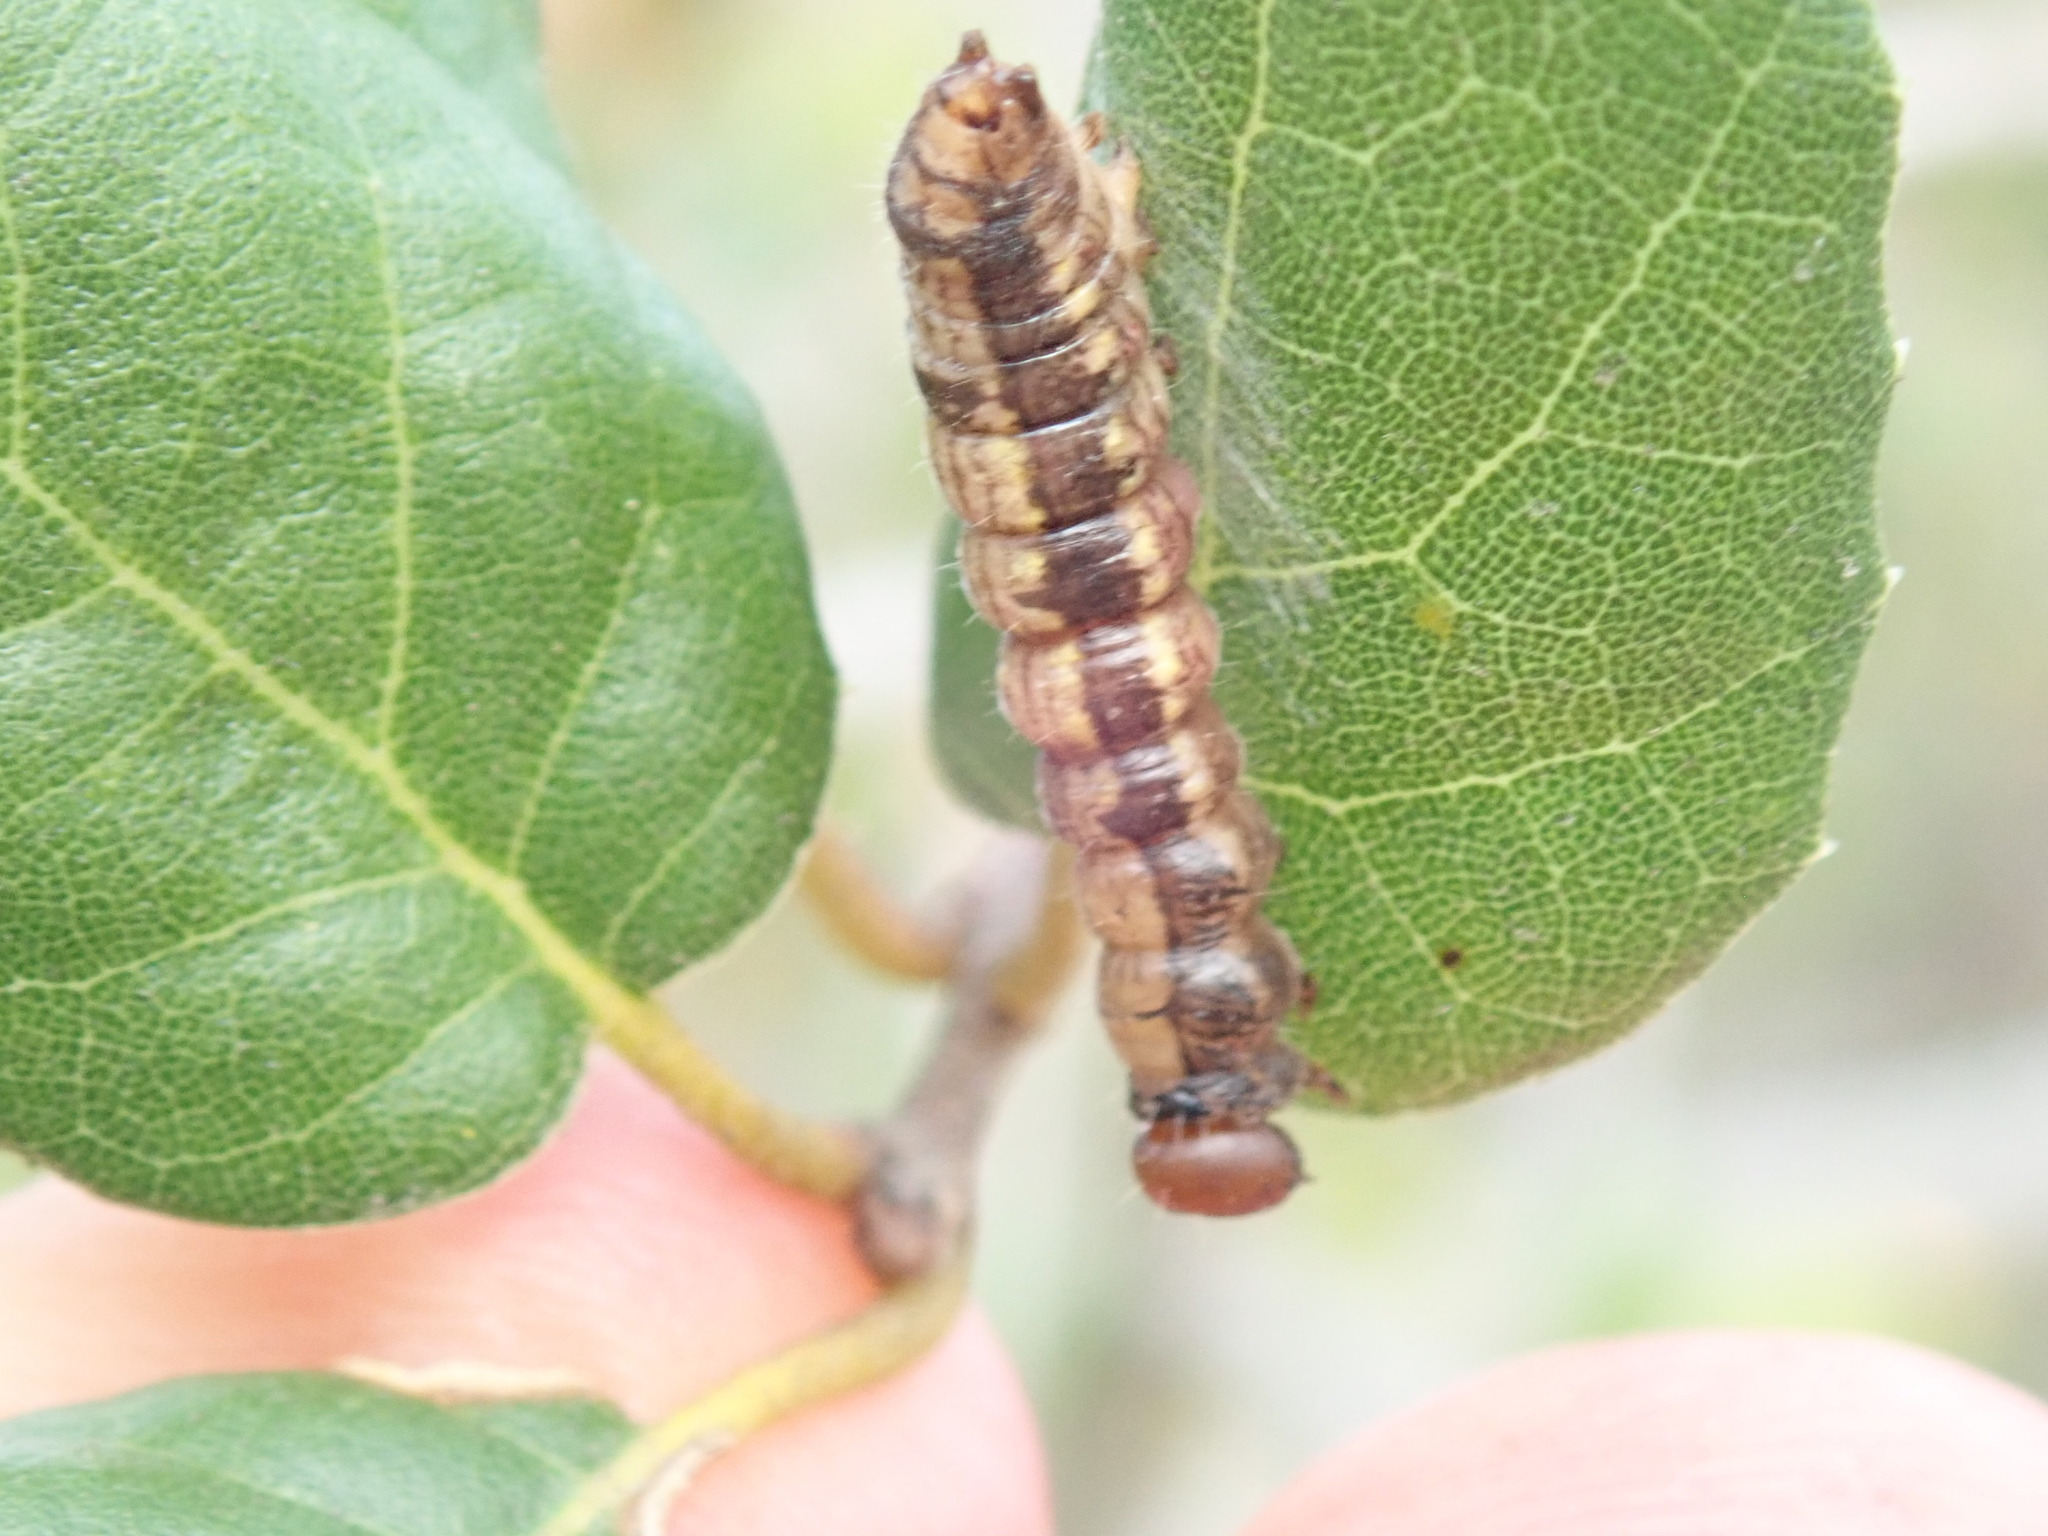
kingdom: Animalia
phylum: Arthropoda
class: Insecta
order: Lepidoptera
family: Notodontidae
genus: Phryganidia
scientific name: Phryganidia californica
